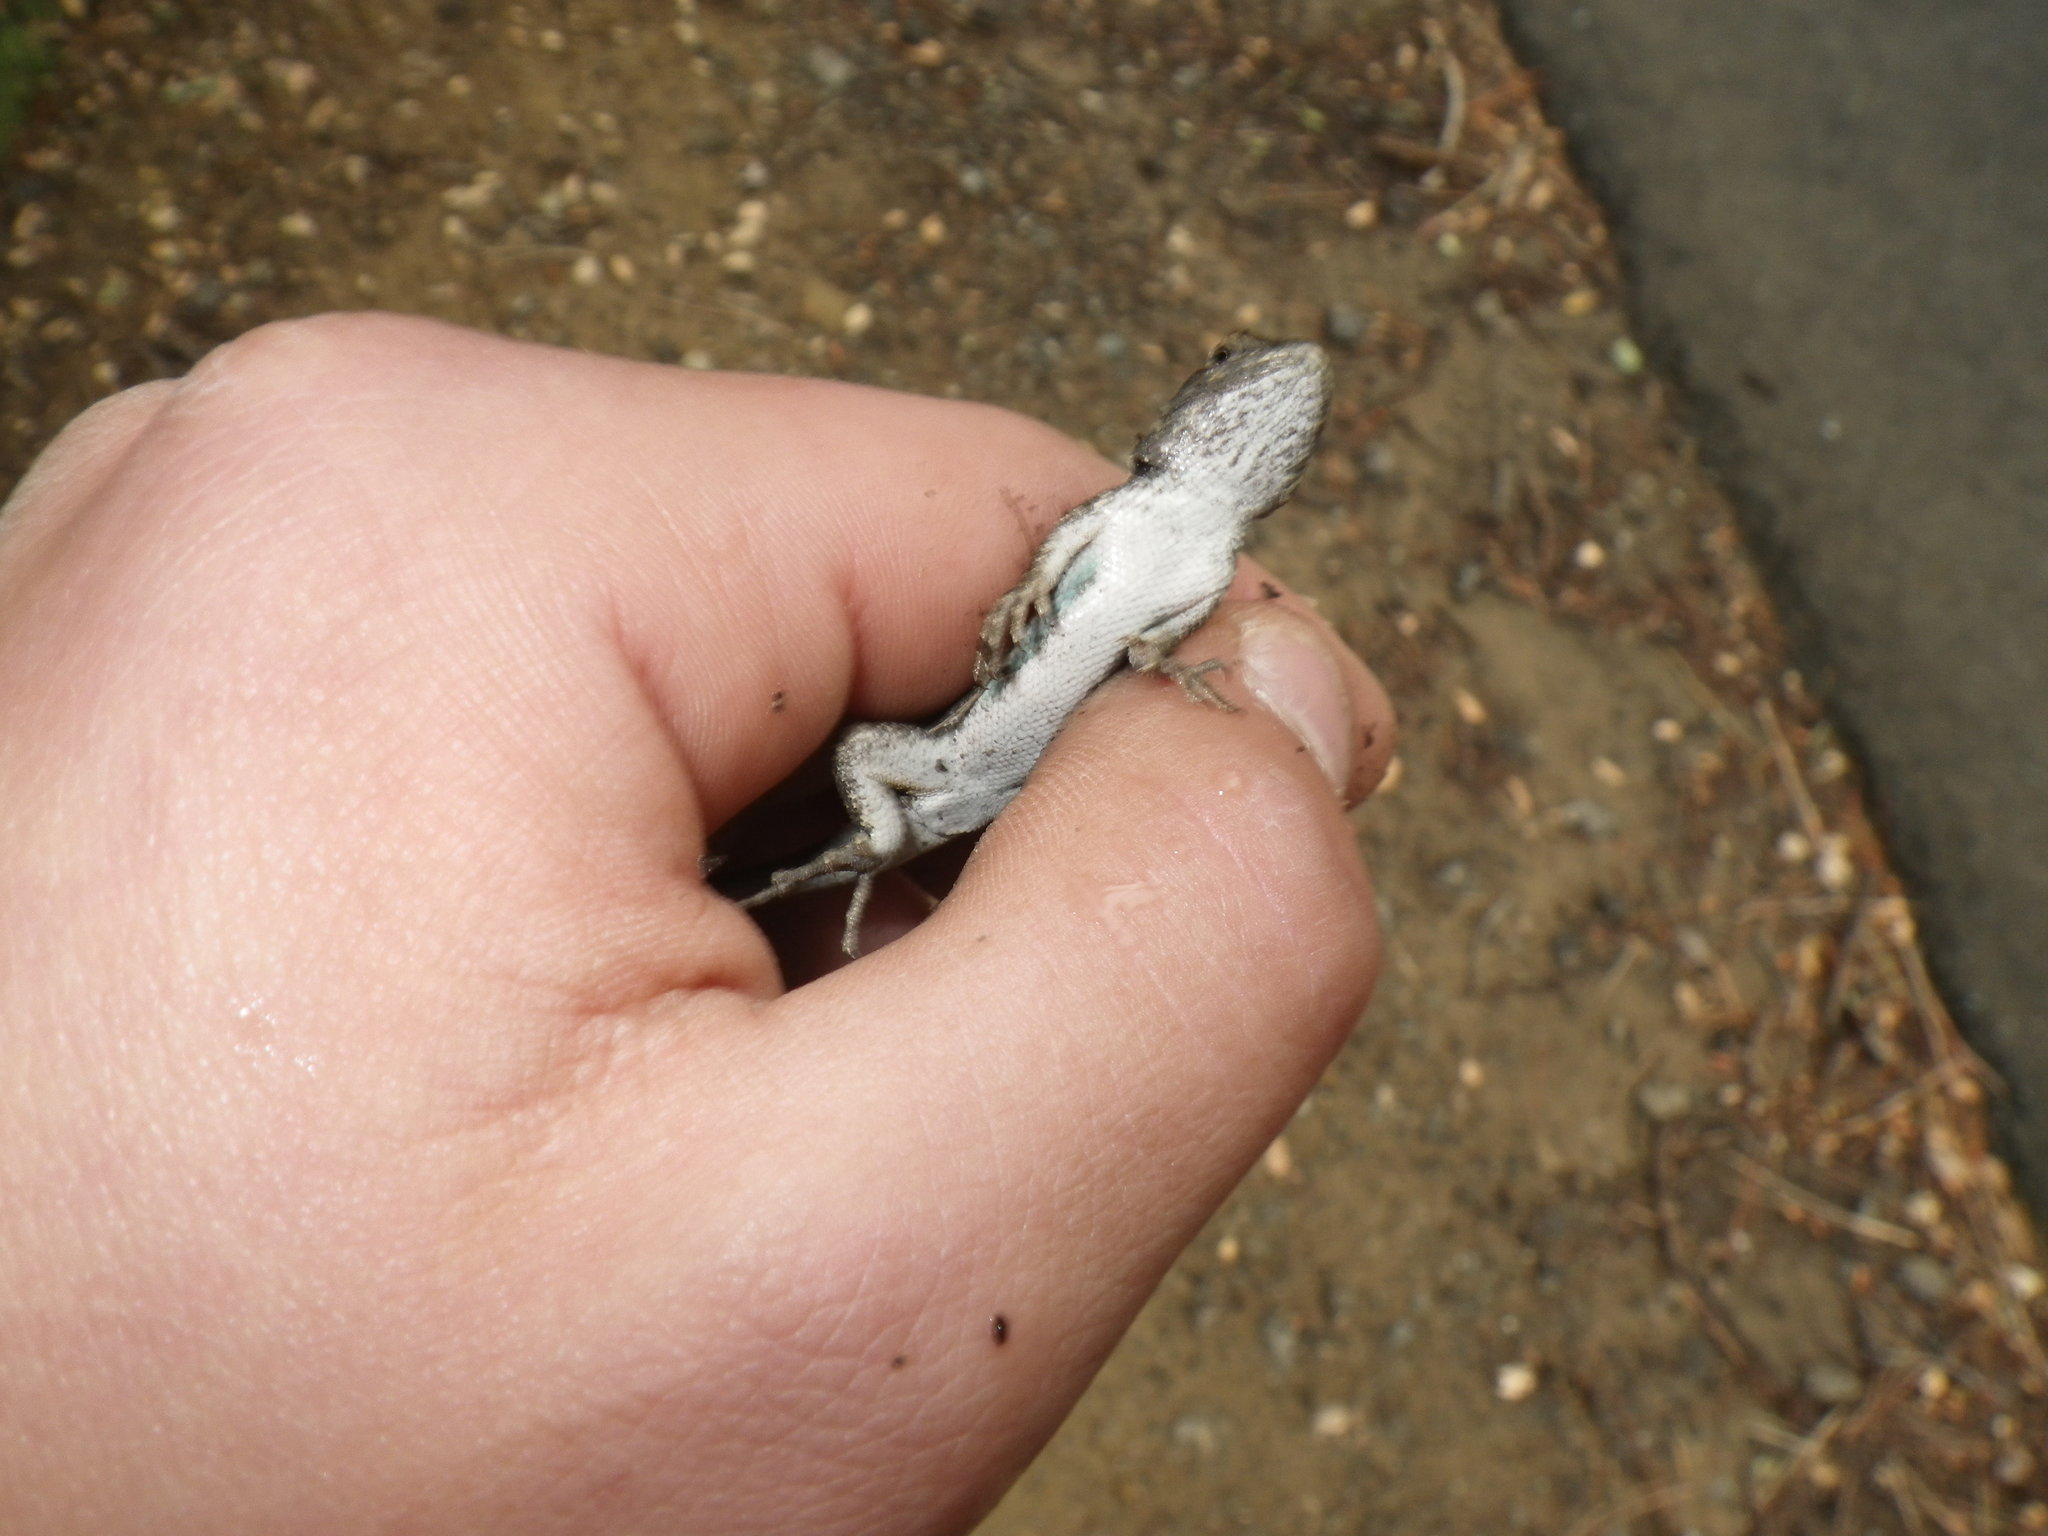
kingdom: Animalia
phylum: Chordata
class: Squamata
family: Phrynosomatidae
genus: Sceloporus
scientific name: Sceloporus occidentalis
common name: Western fence lizard
